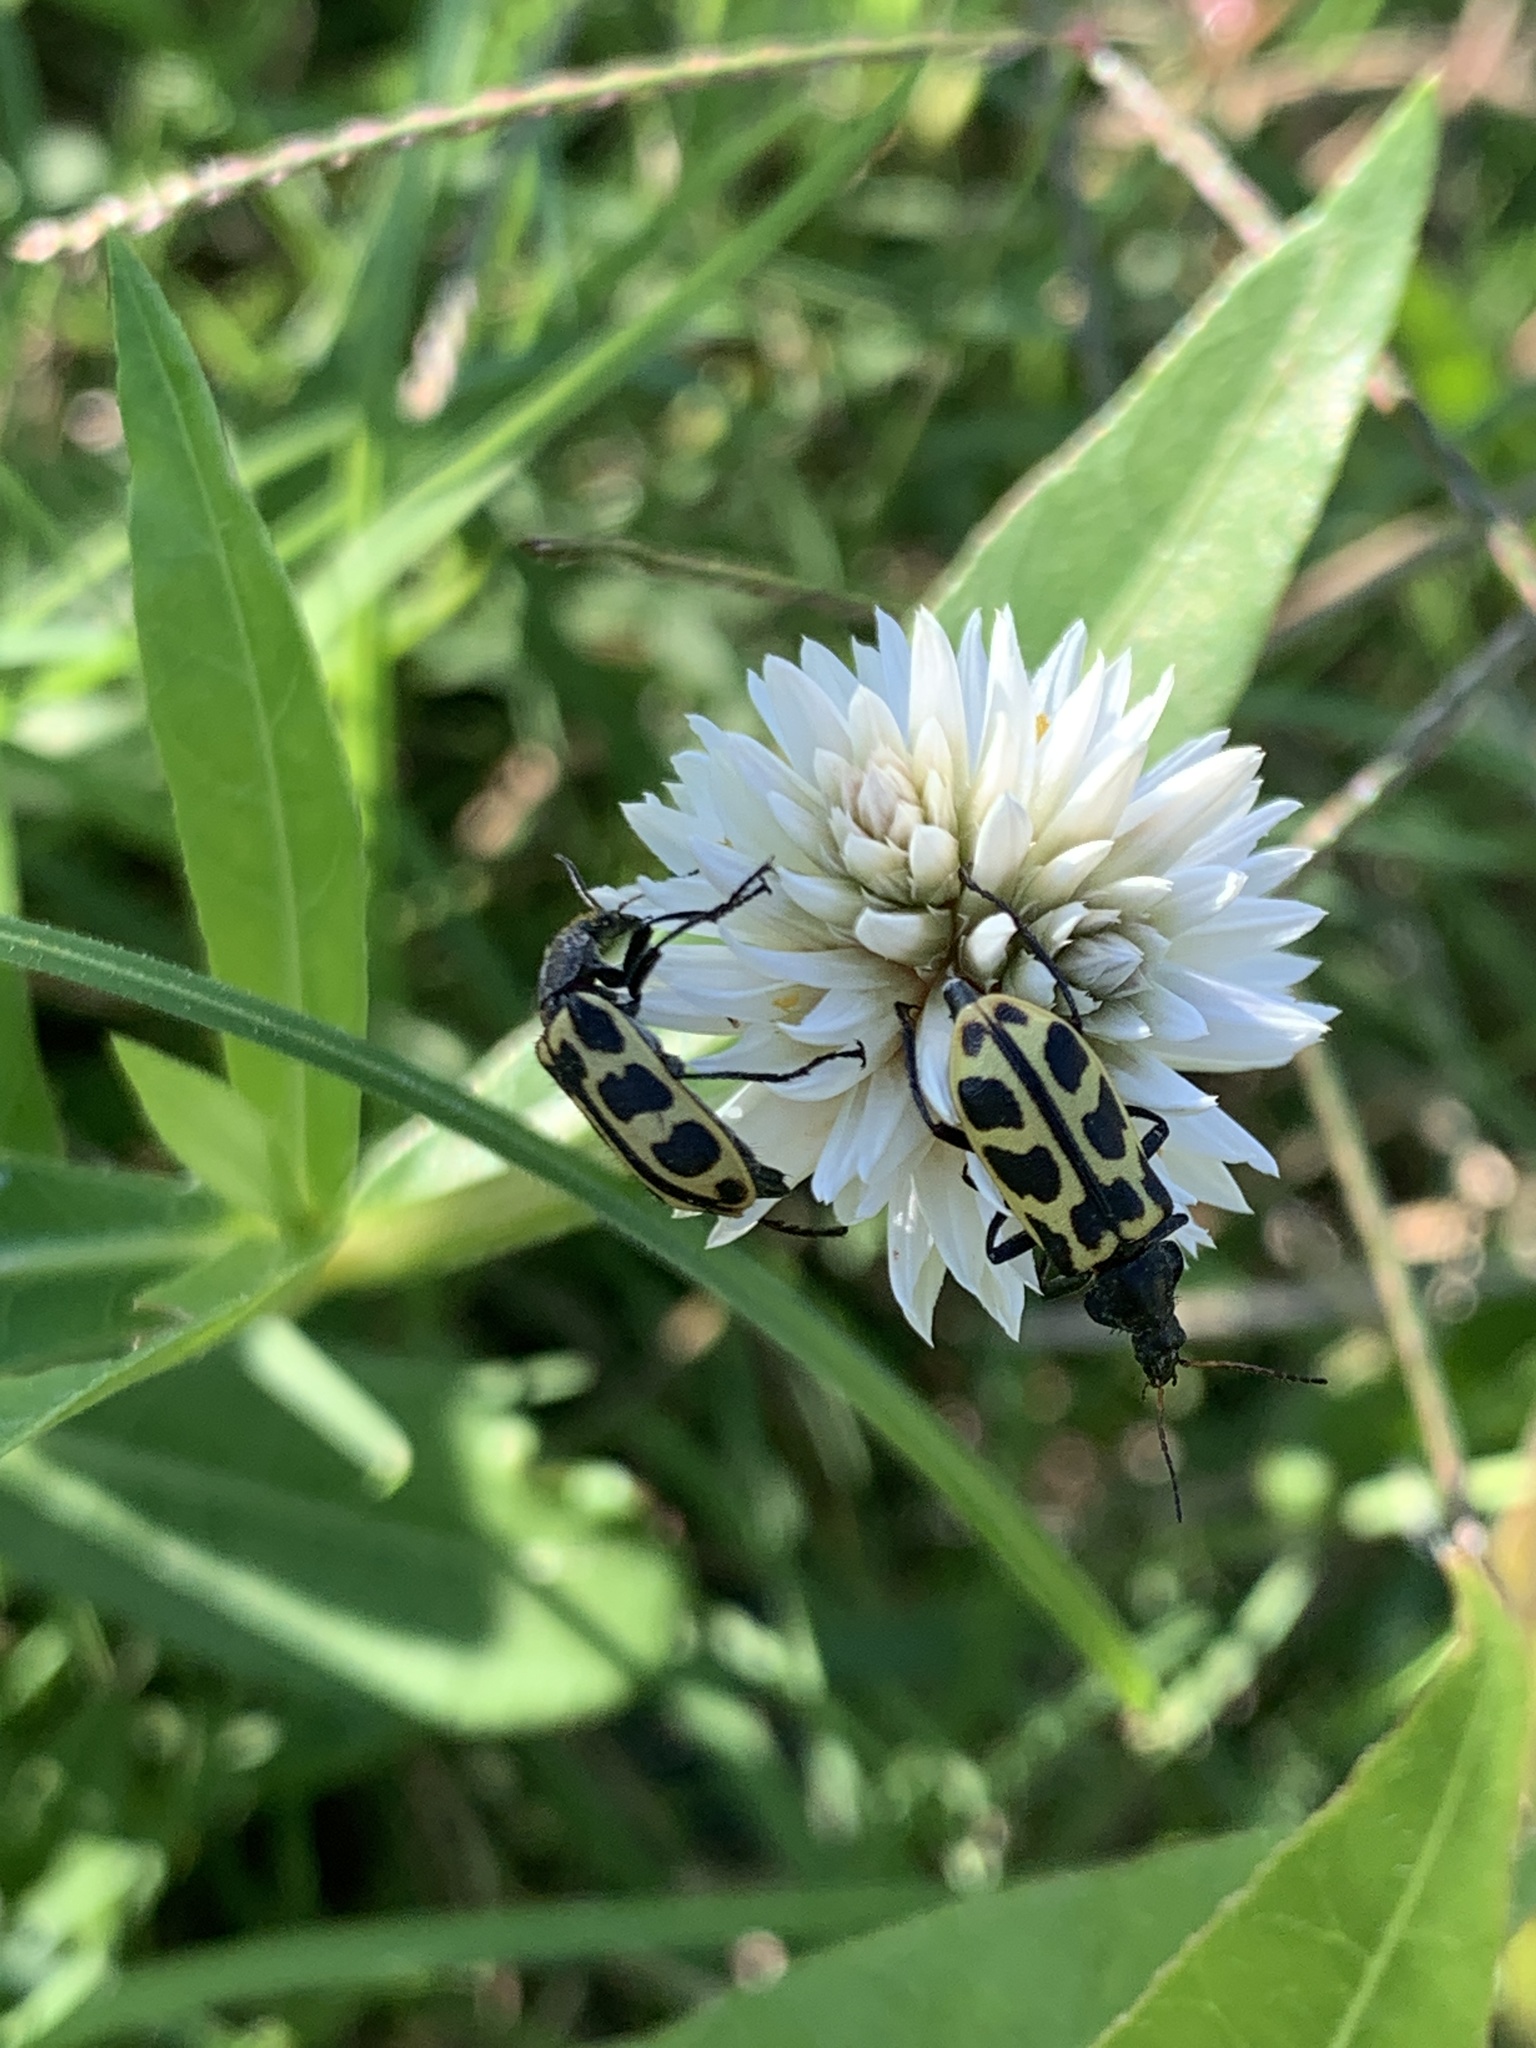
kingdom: Animalia
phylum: Arthropoda
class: Insecta
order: Coleoptera
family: Melyridae
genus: Astylus
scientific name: Astylus atromaculatus
